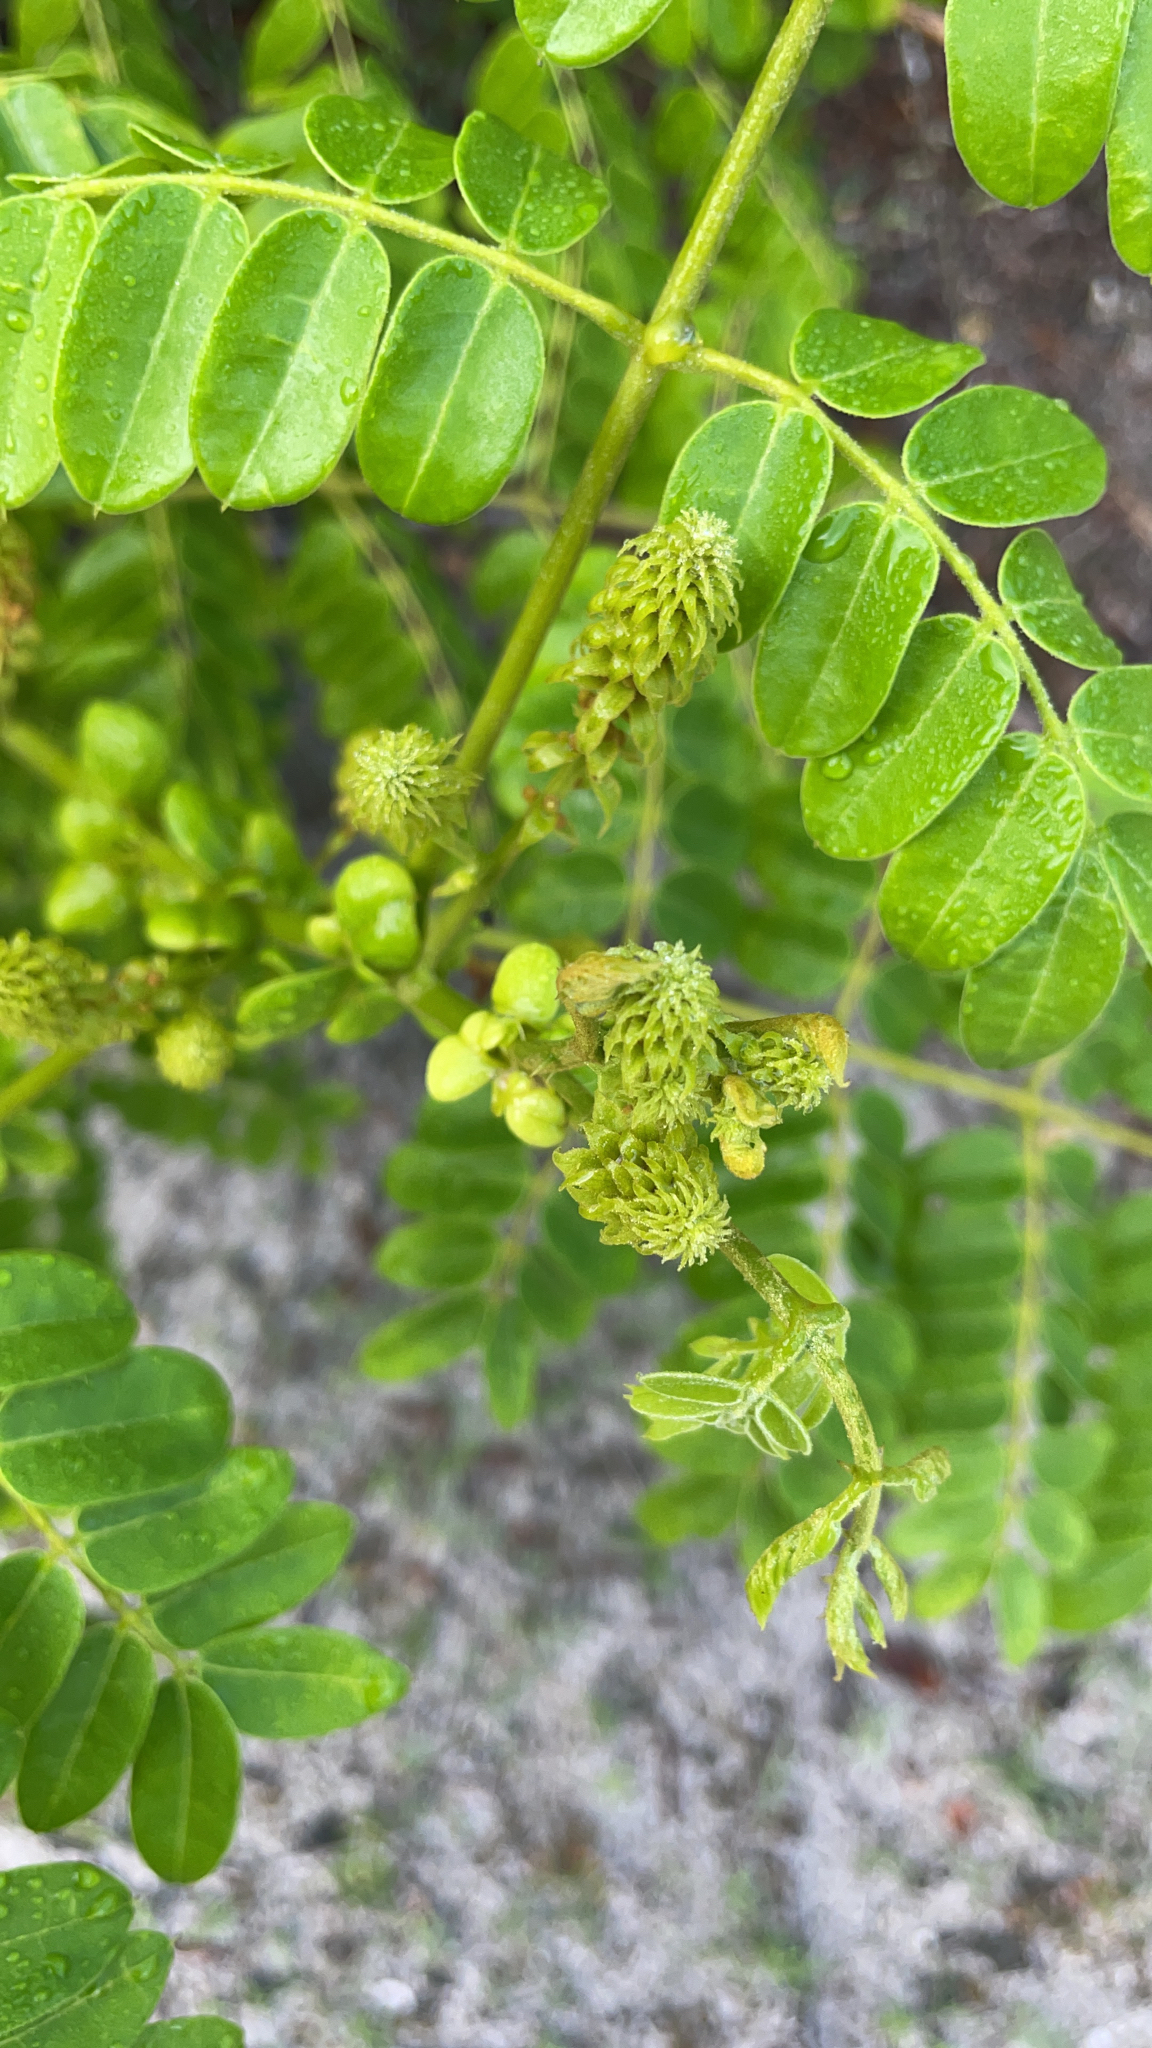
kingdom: Plantae
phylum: Tracheophyta
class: Magnoliopsida
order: Fabales
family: Fabaceae
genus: Guilandina
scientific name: Guilandina bonduc
